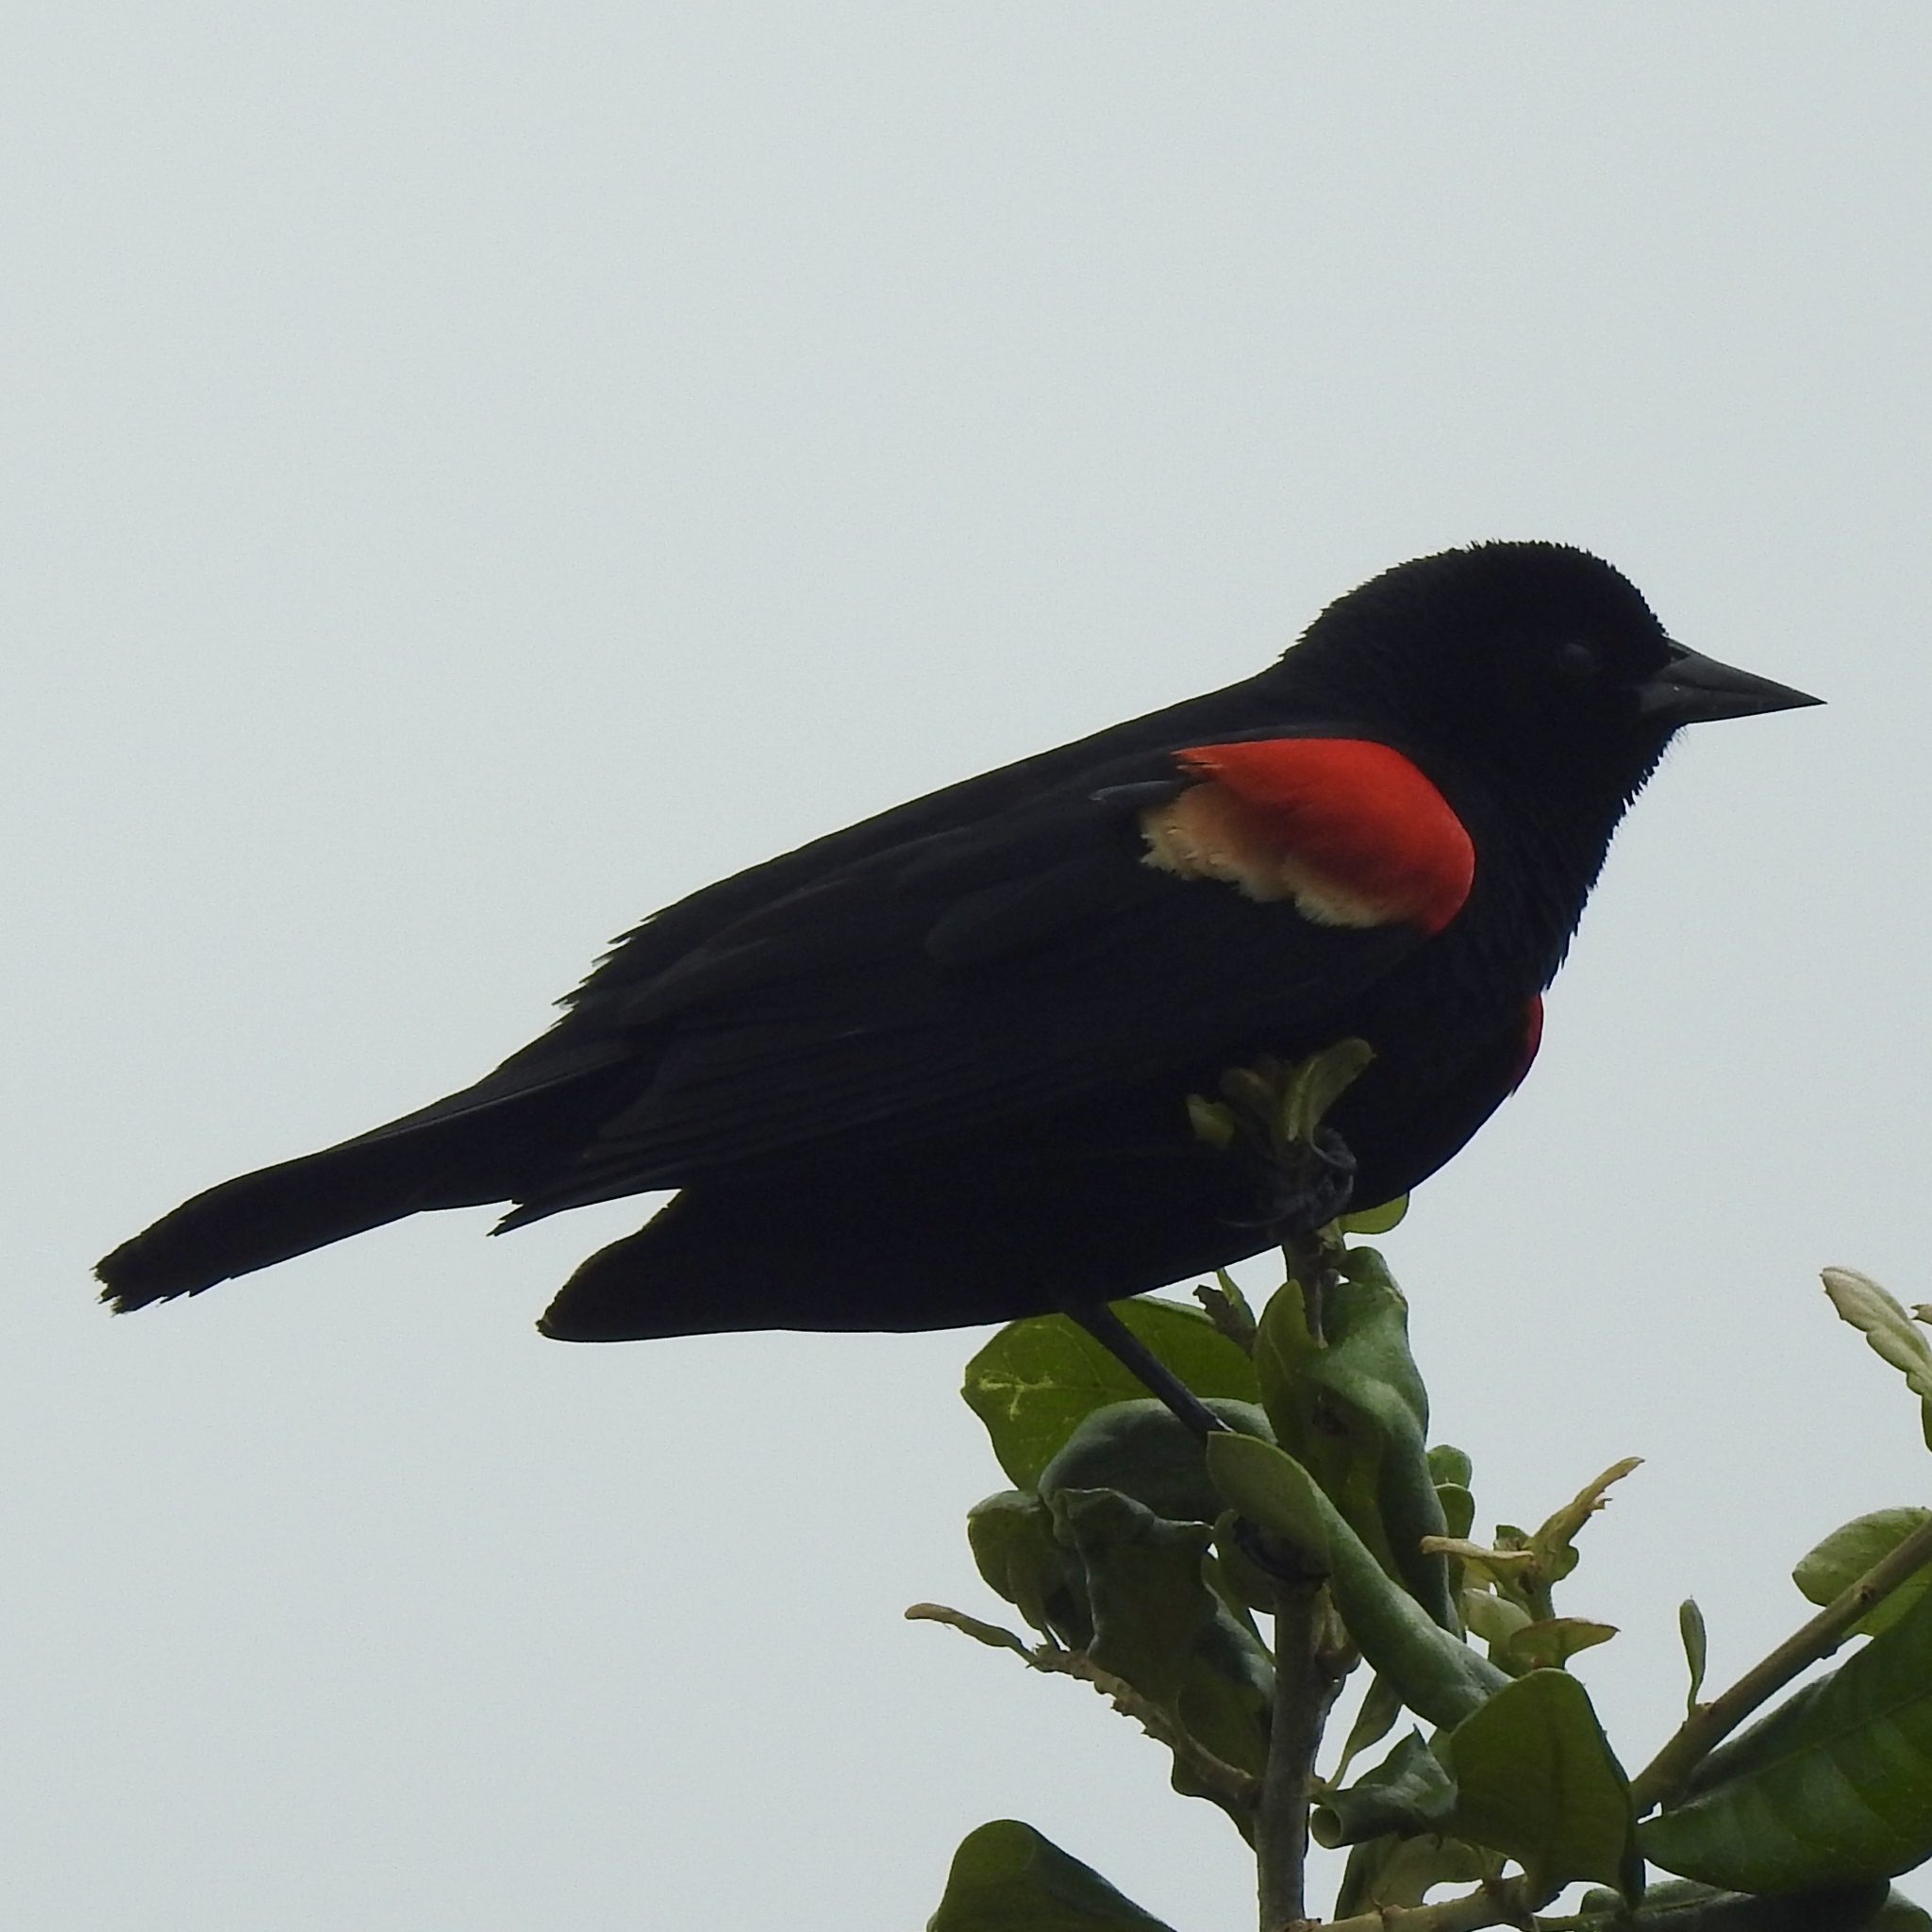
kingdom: Animalia
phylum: Chordata
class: Aves
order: Passeriformes
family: Icteridae
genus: Agelaius
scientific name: Agelaius phoeniceus
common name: Red-winged blackbird
